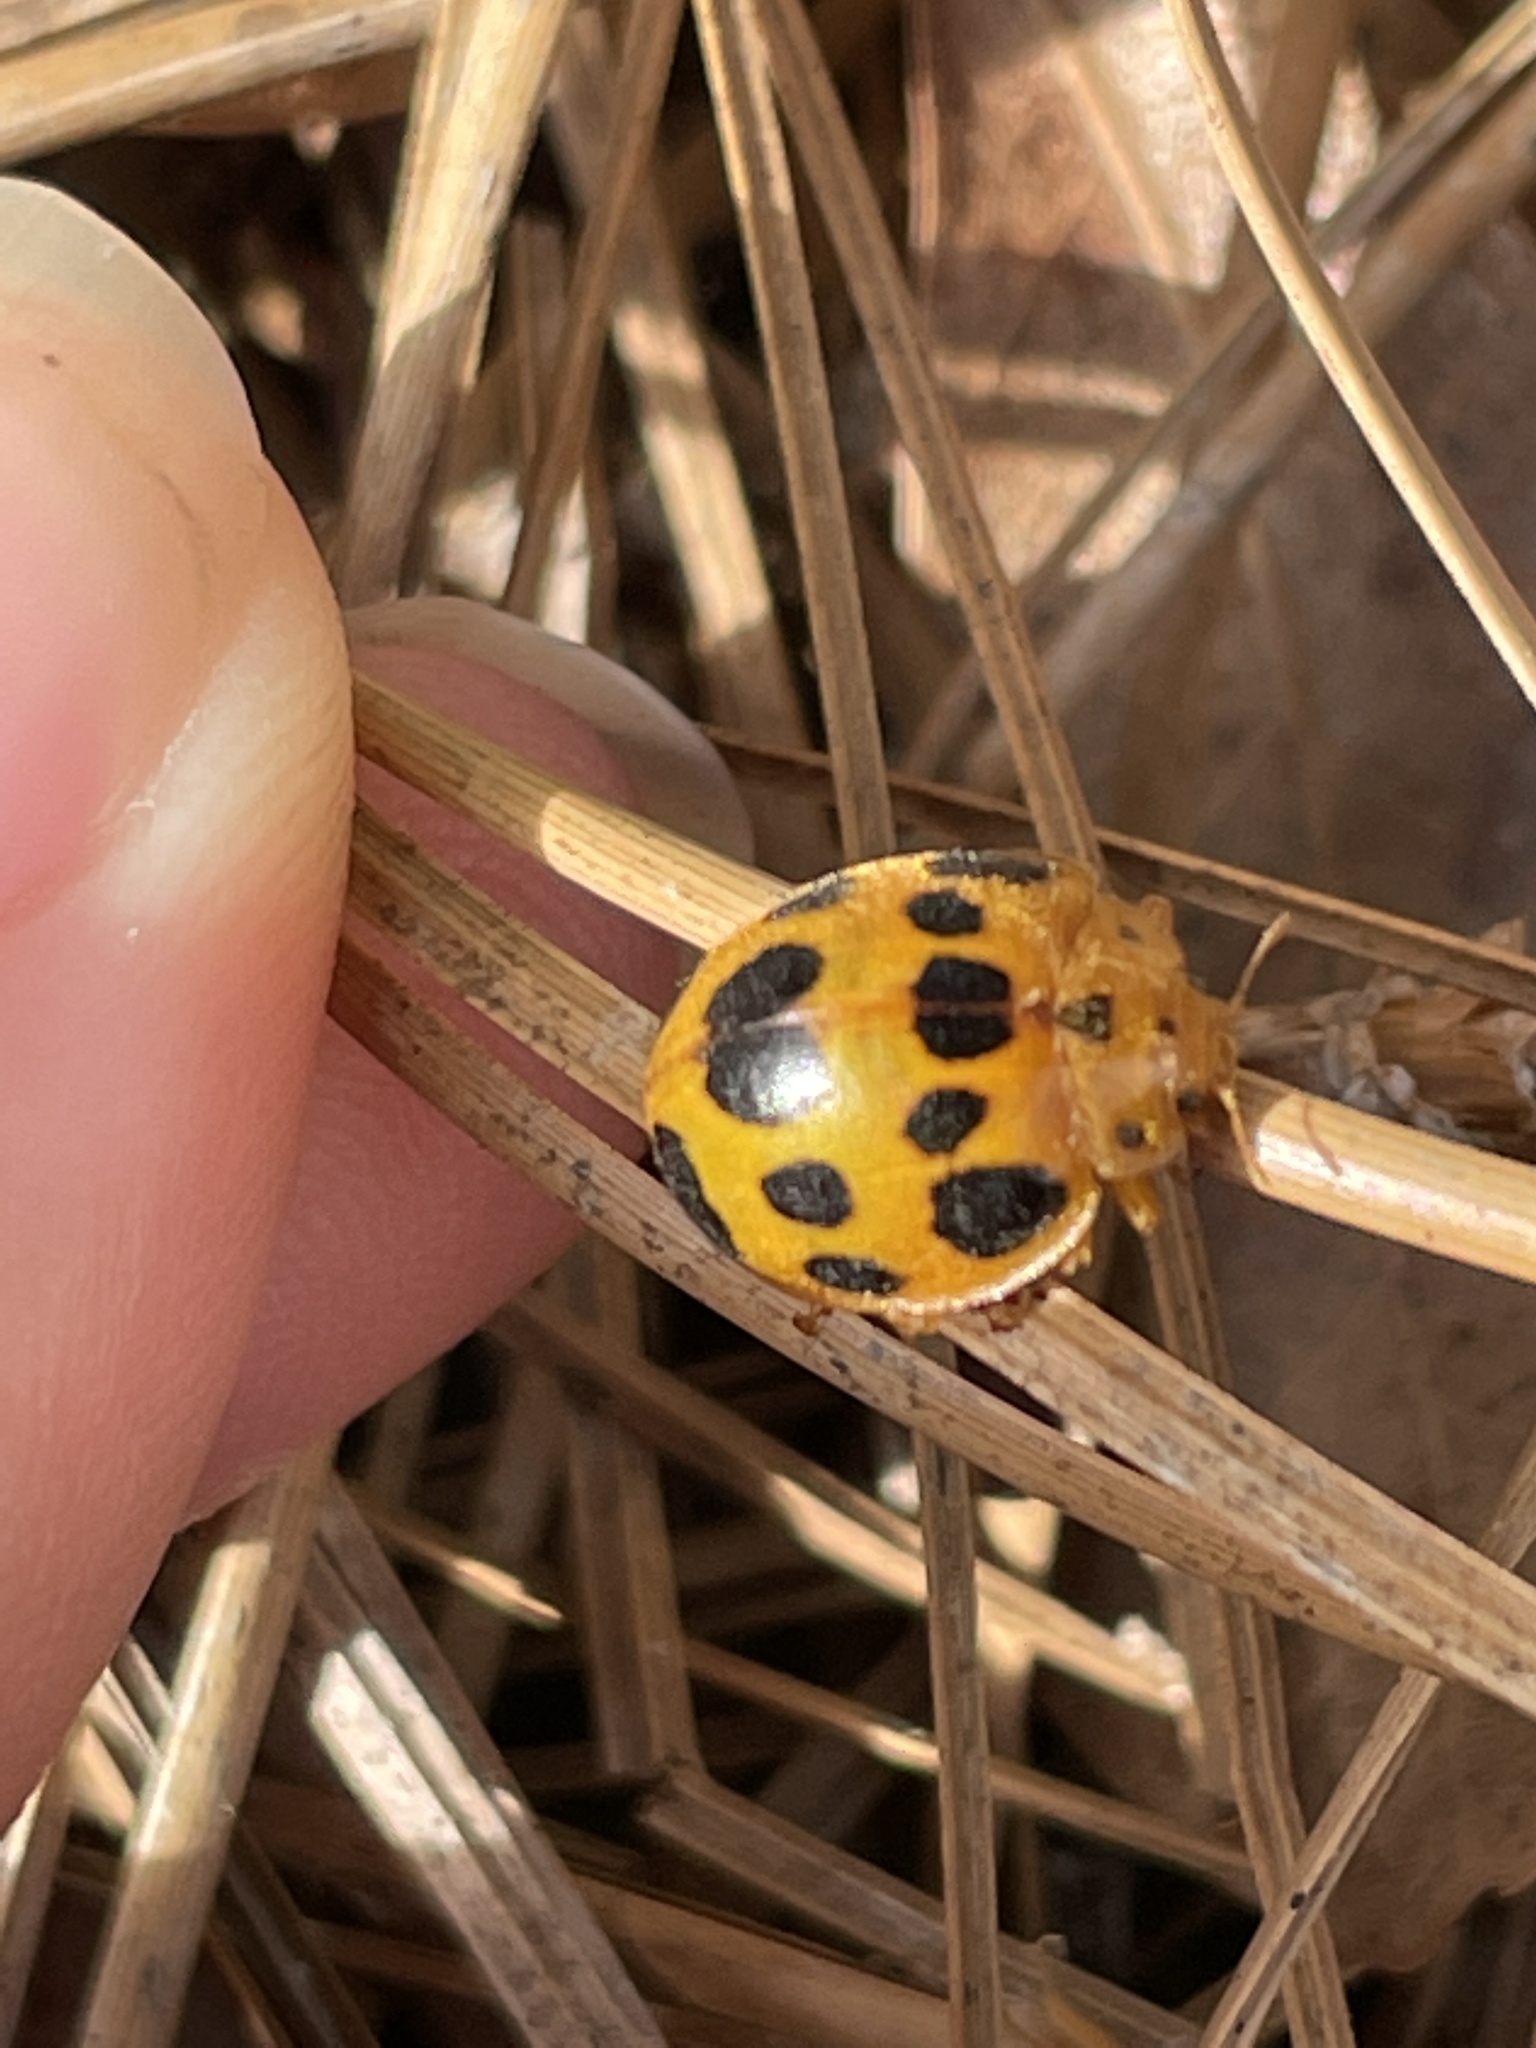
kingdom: Animalia
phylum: Arthropoda
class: Insecta
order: Coleoptera
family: Coccinellidae
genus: Epilachna
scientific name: Epilachna borealis
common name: Squash beetle
